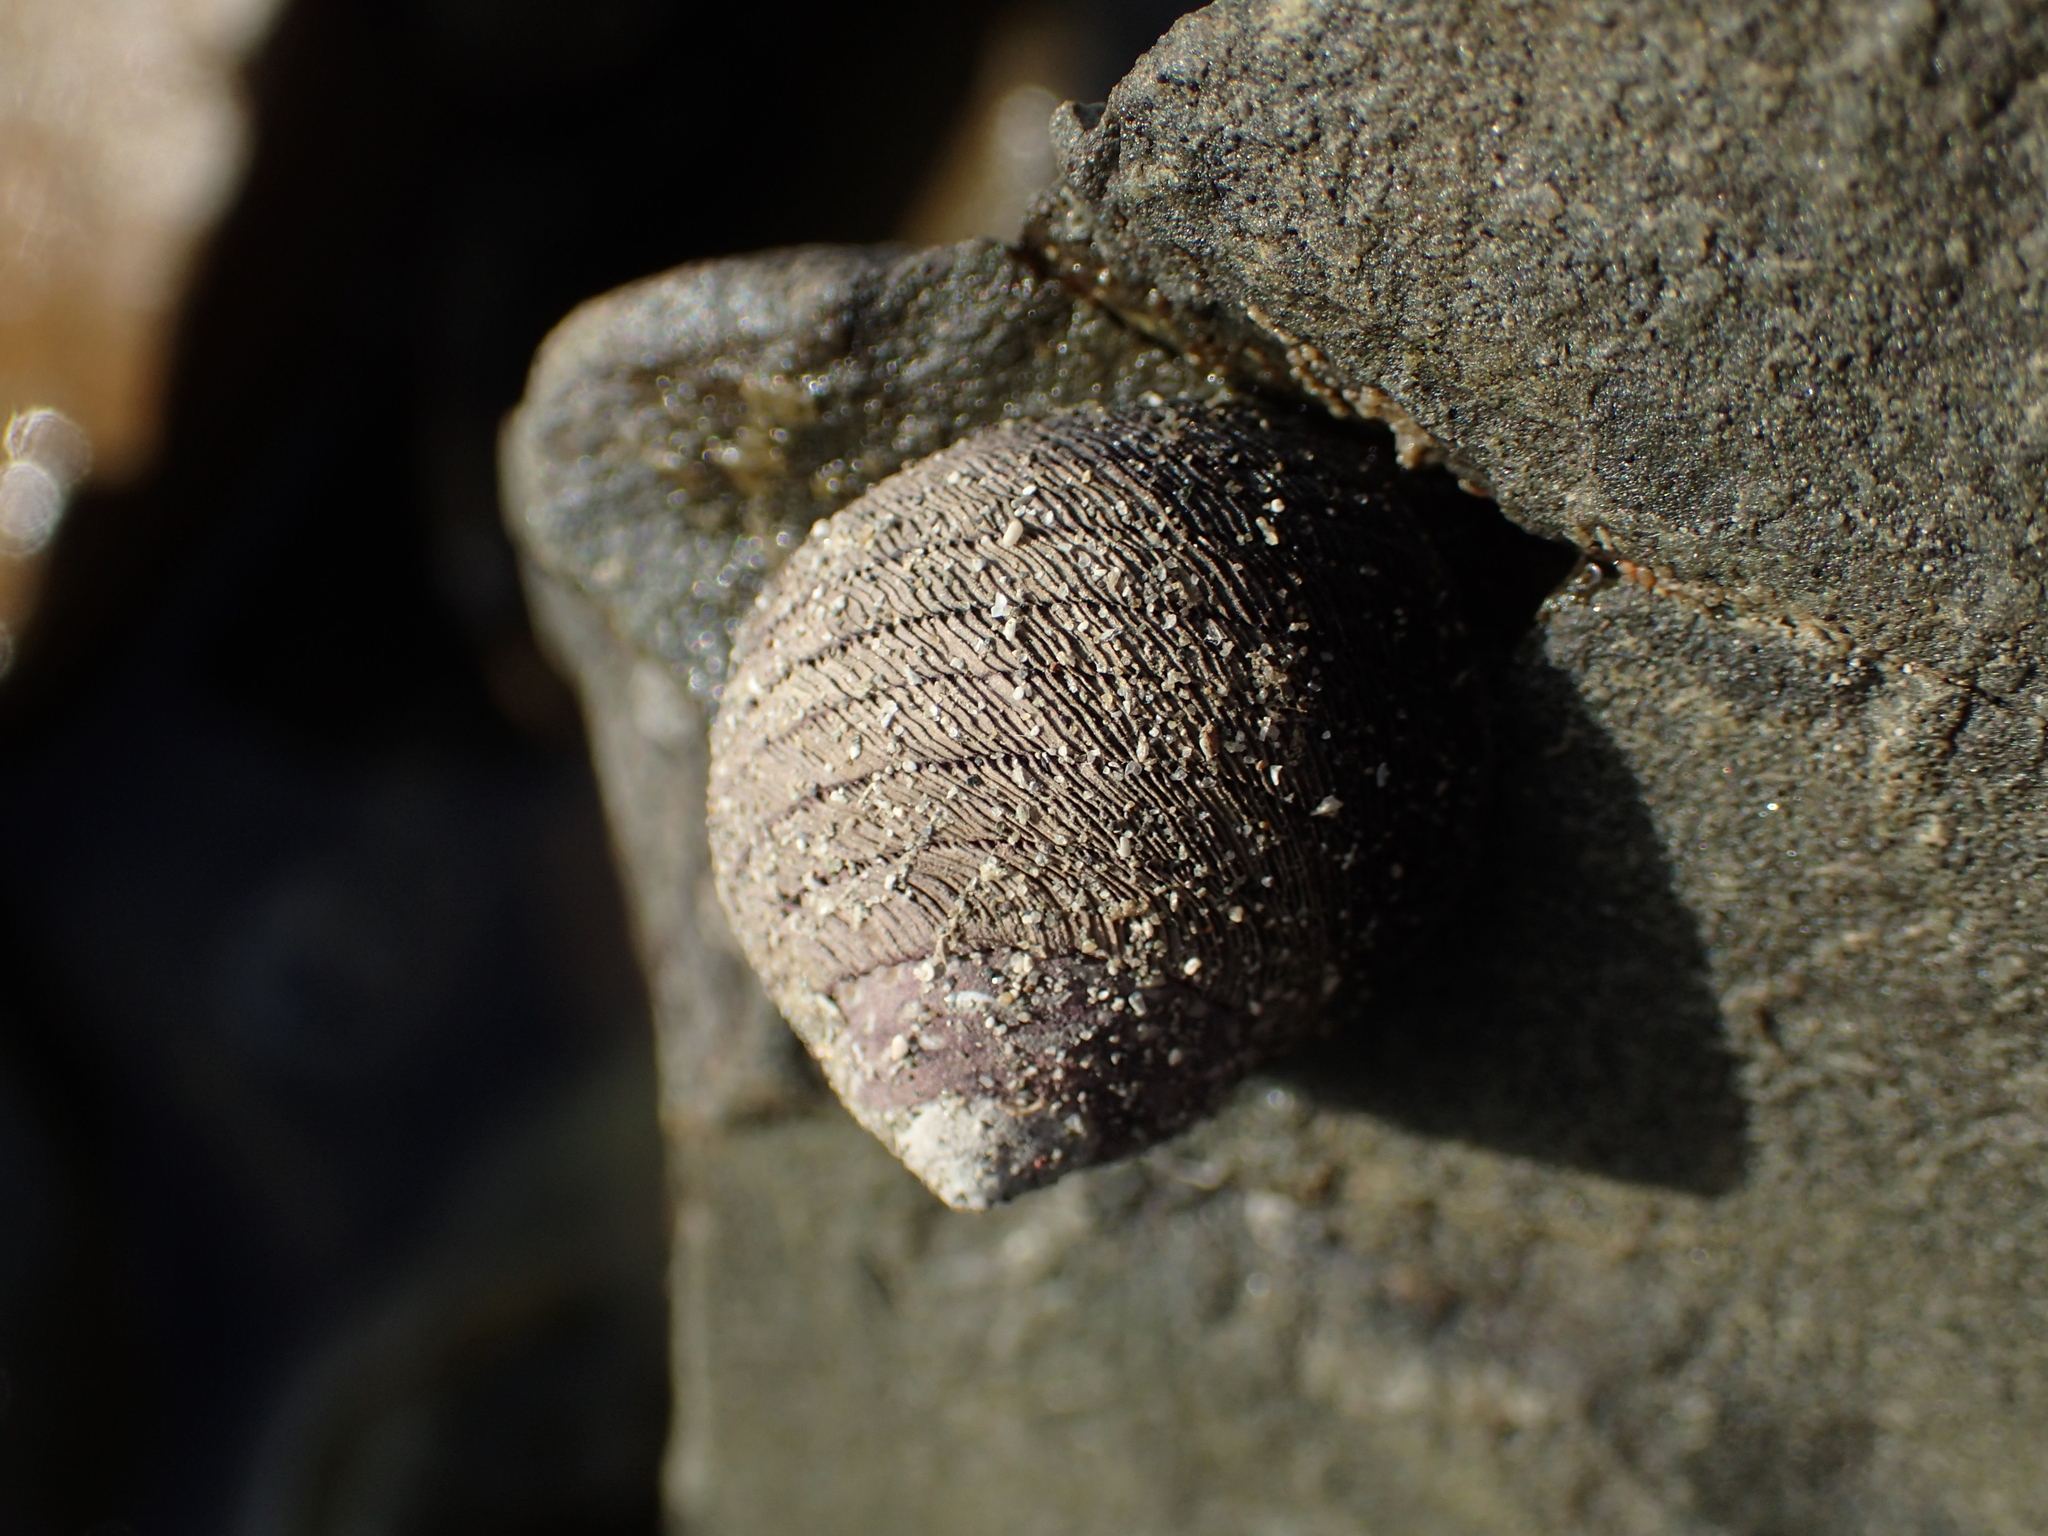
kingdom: Animalia
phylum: Mollusca
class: Gastropoda
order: Trochida
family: Trochidae
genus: Diloma
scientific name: Diloma aethiops
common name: Scorched monodont
